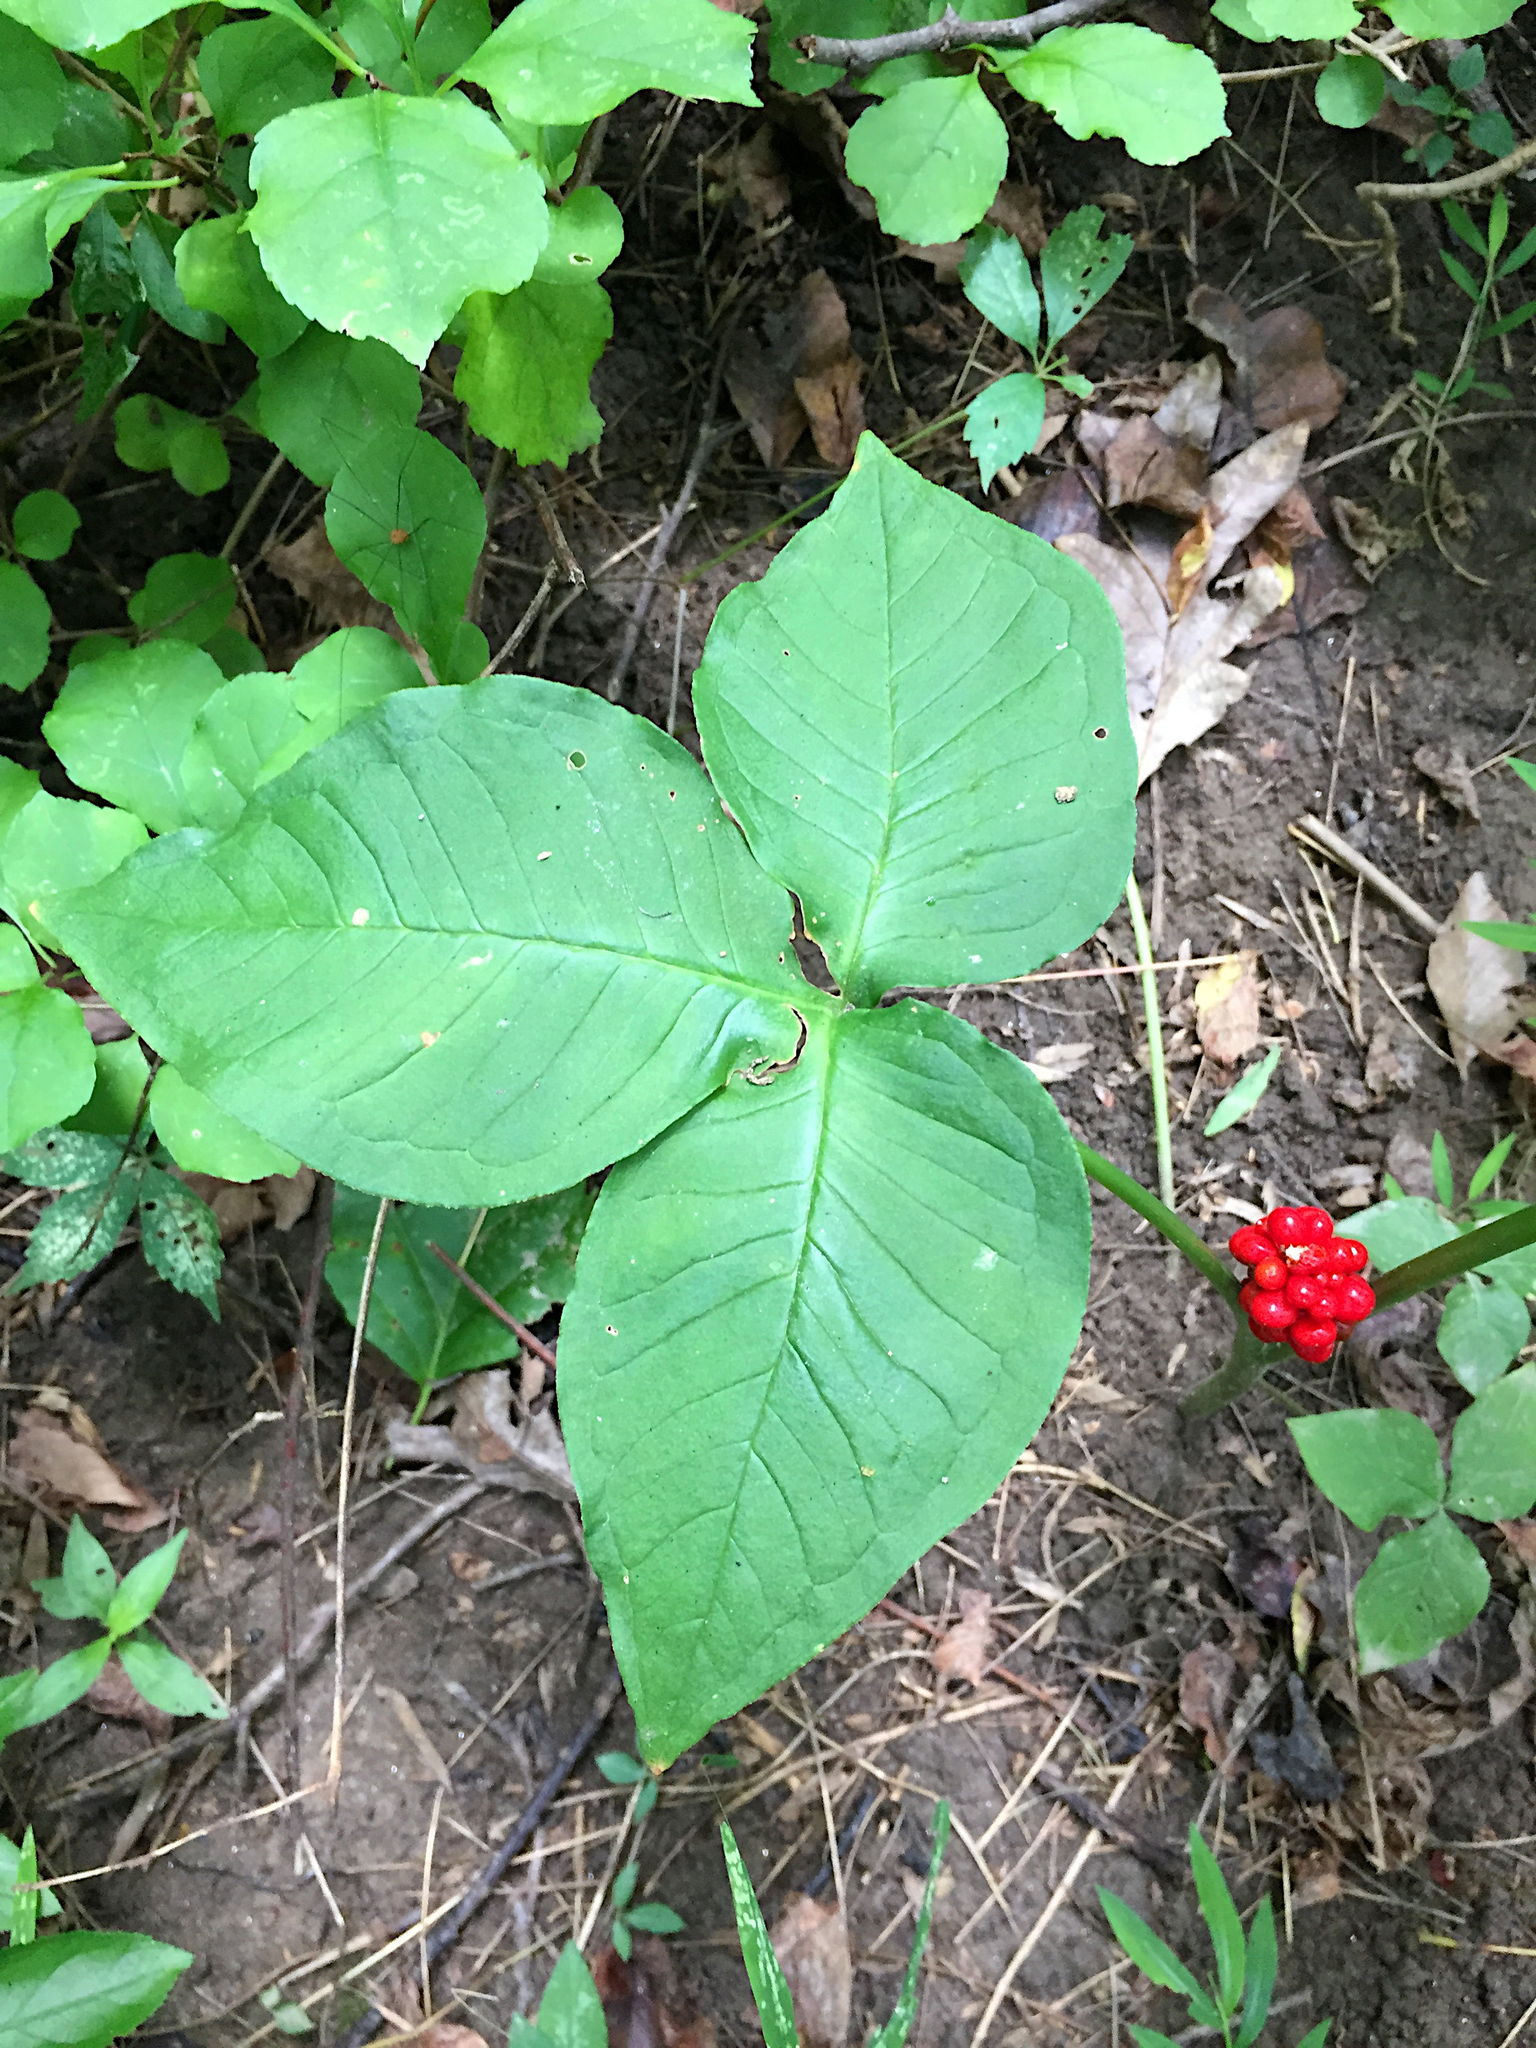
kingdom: Plantae
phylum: Tracheophyta
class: Liliopsida
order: Alismatales
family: Araceae
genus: Arisaema
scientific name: Arisaema triphyllum
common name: Jack-in-the-pulpit
